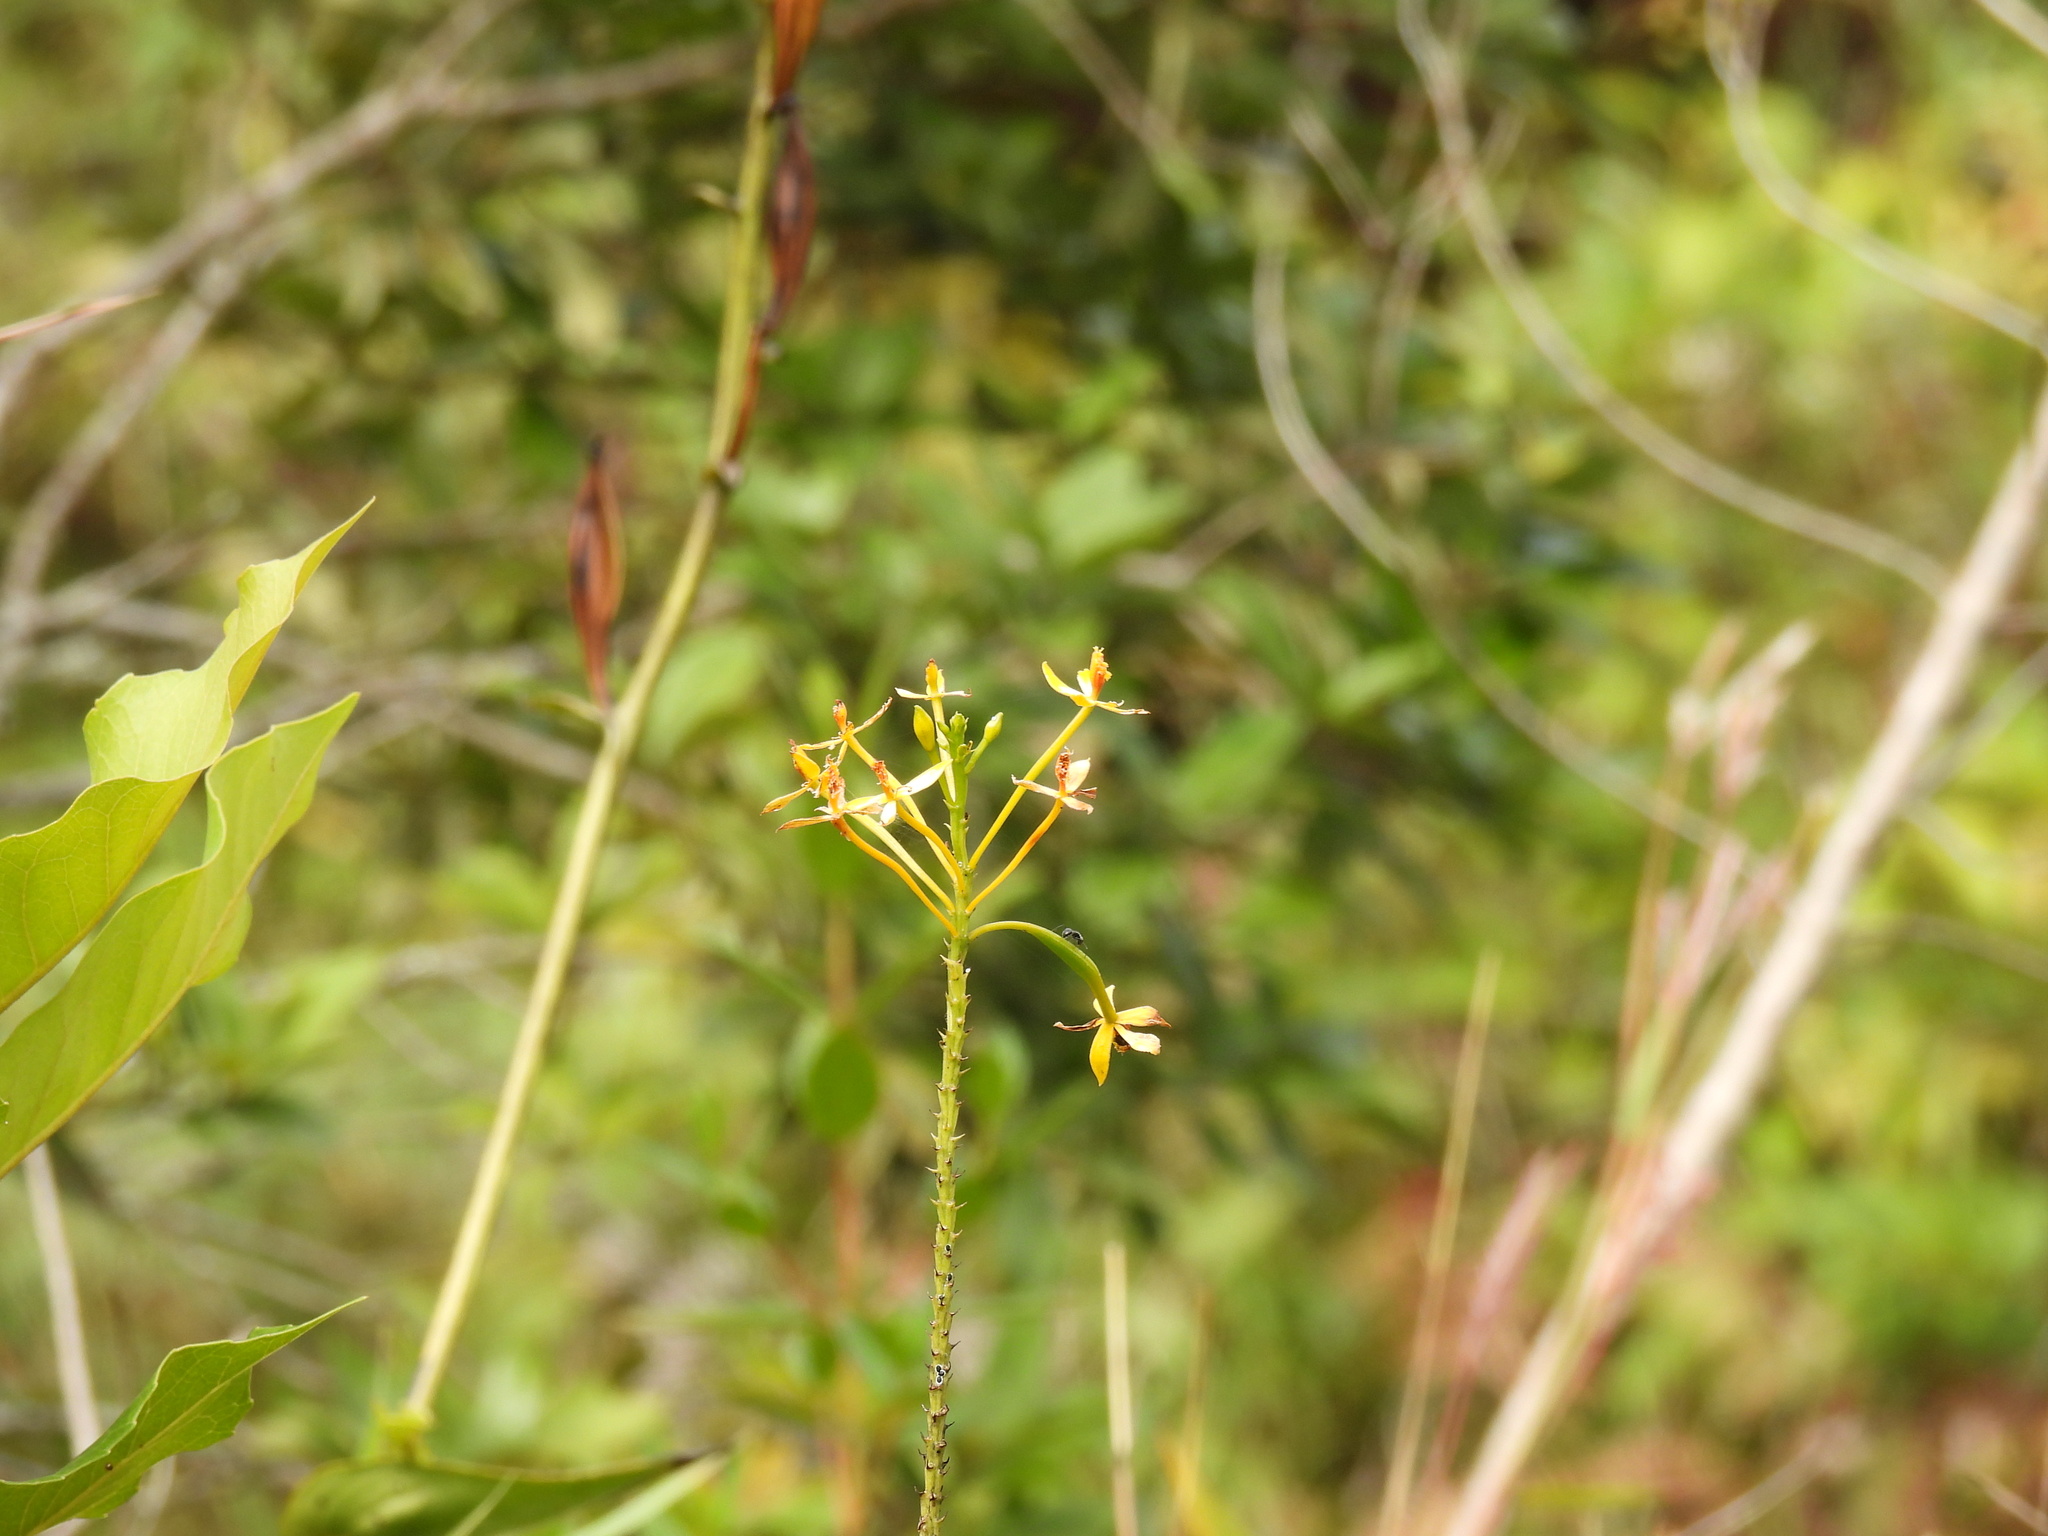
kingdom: Plantae
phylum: Tracheophyta
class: Liliopsida
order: Asparagales
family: Orchidaceae
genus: Epidendrum
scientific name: Epidendrum aura-usecheae
